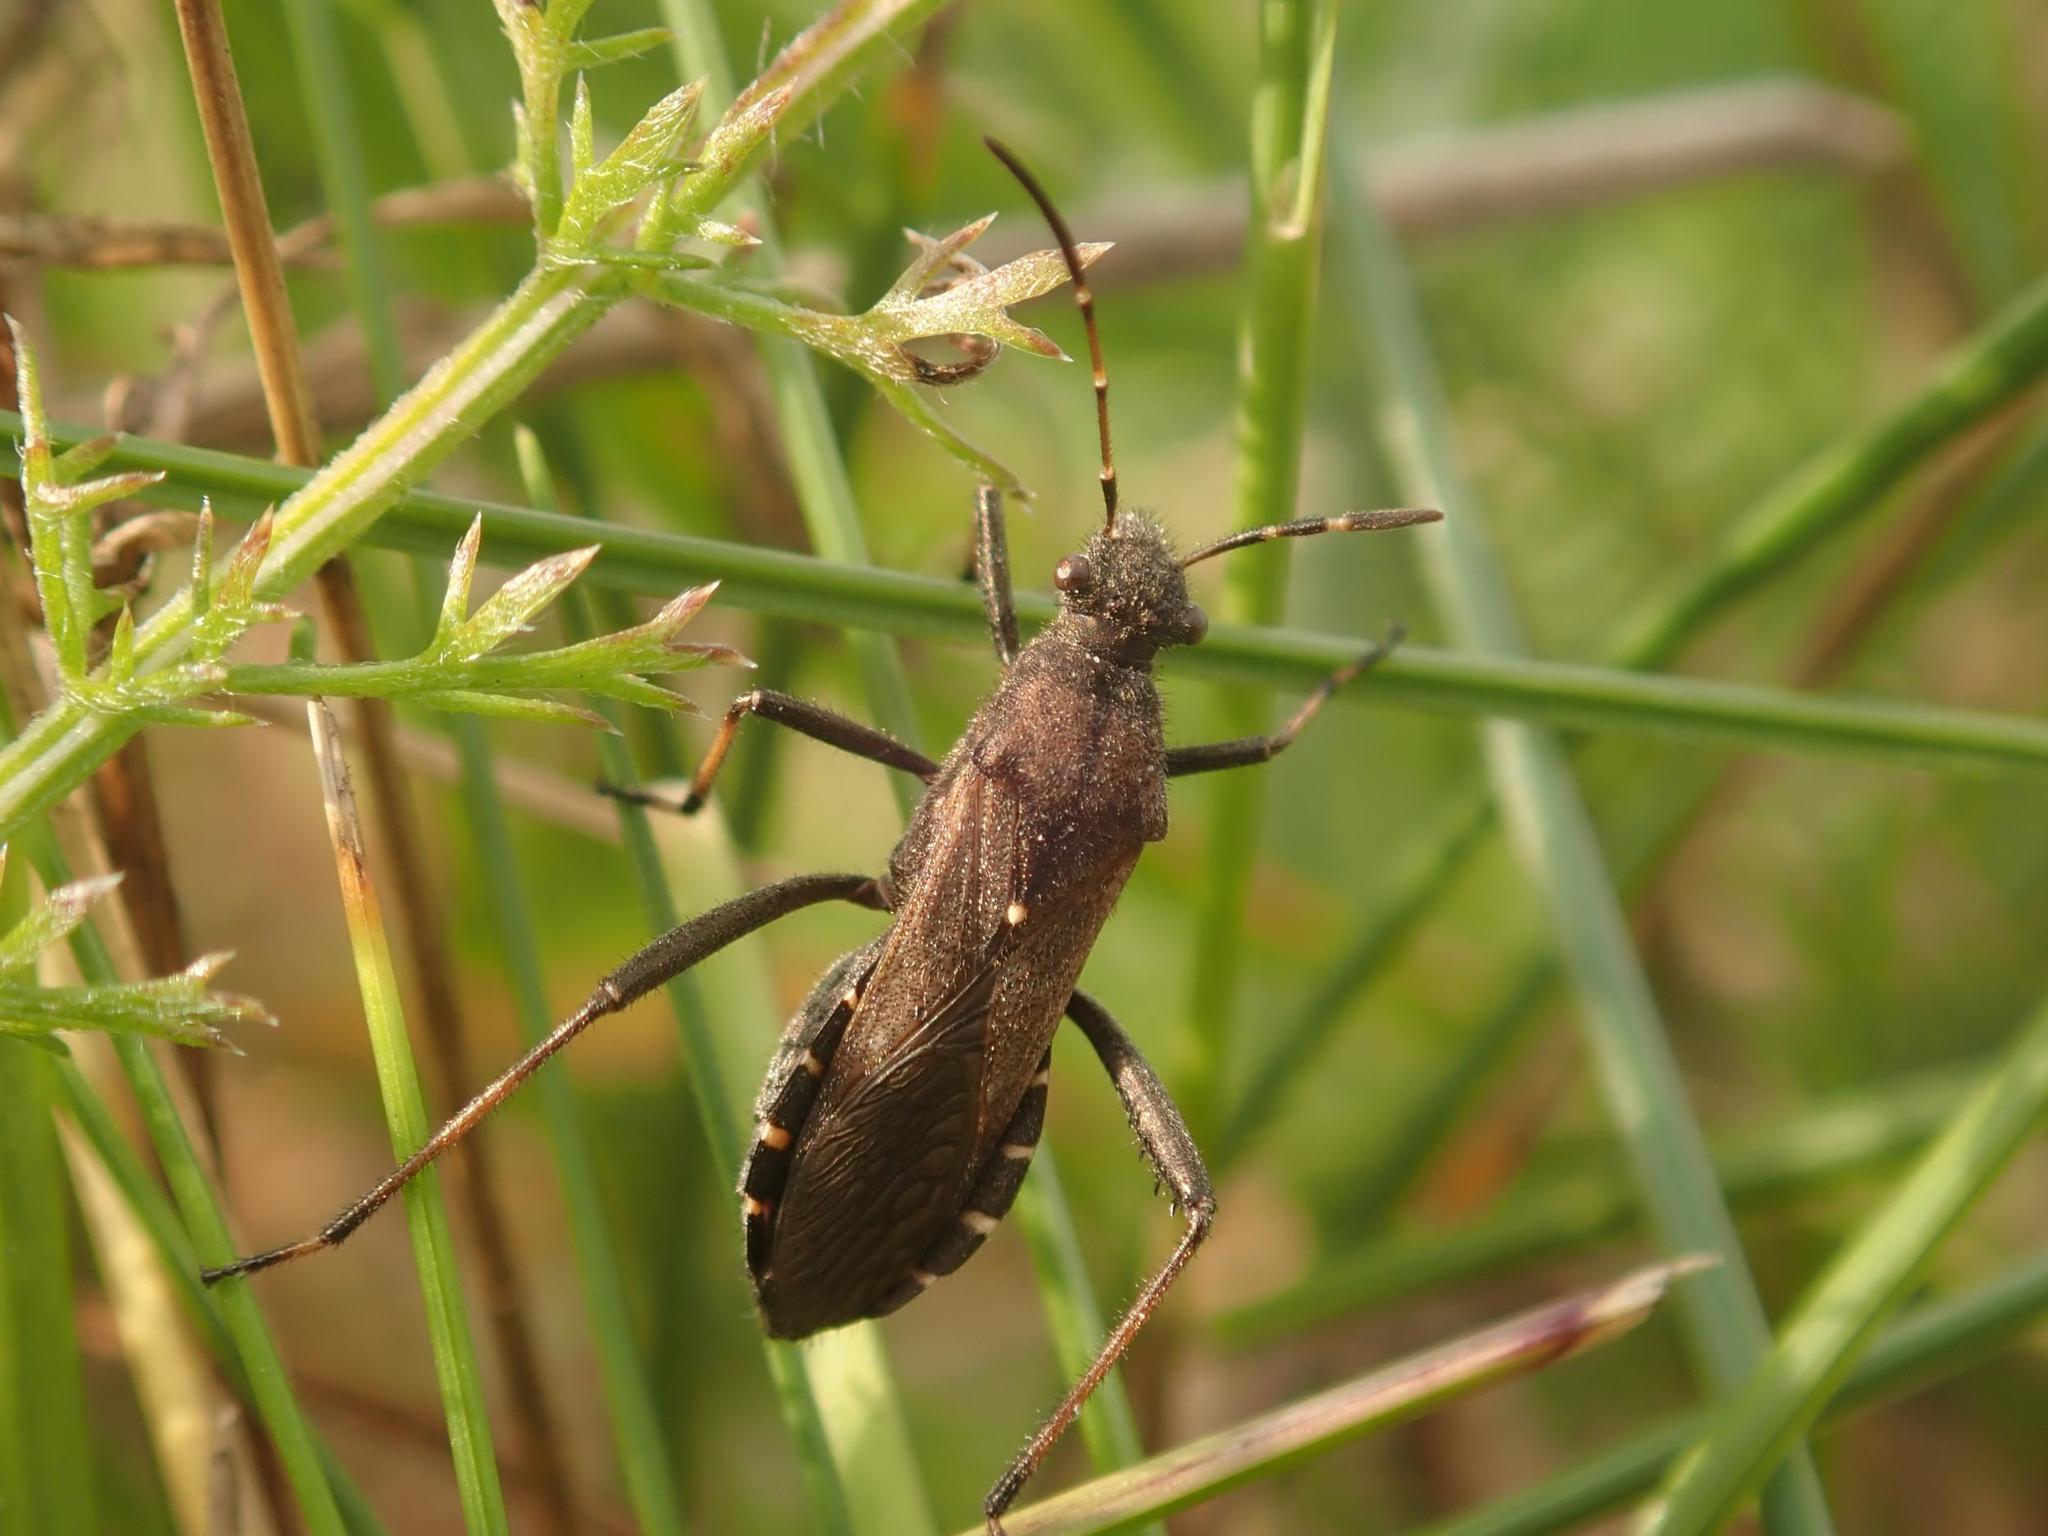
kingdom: Animalia
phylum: Arthropoda
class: Insecta
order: Hemiptera
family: Alydidae
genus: Alydus
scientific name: Alydus calcaratus
